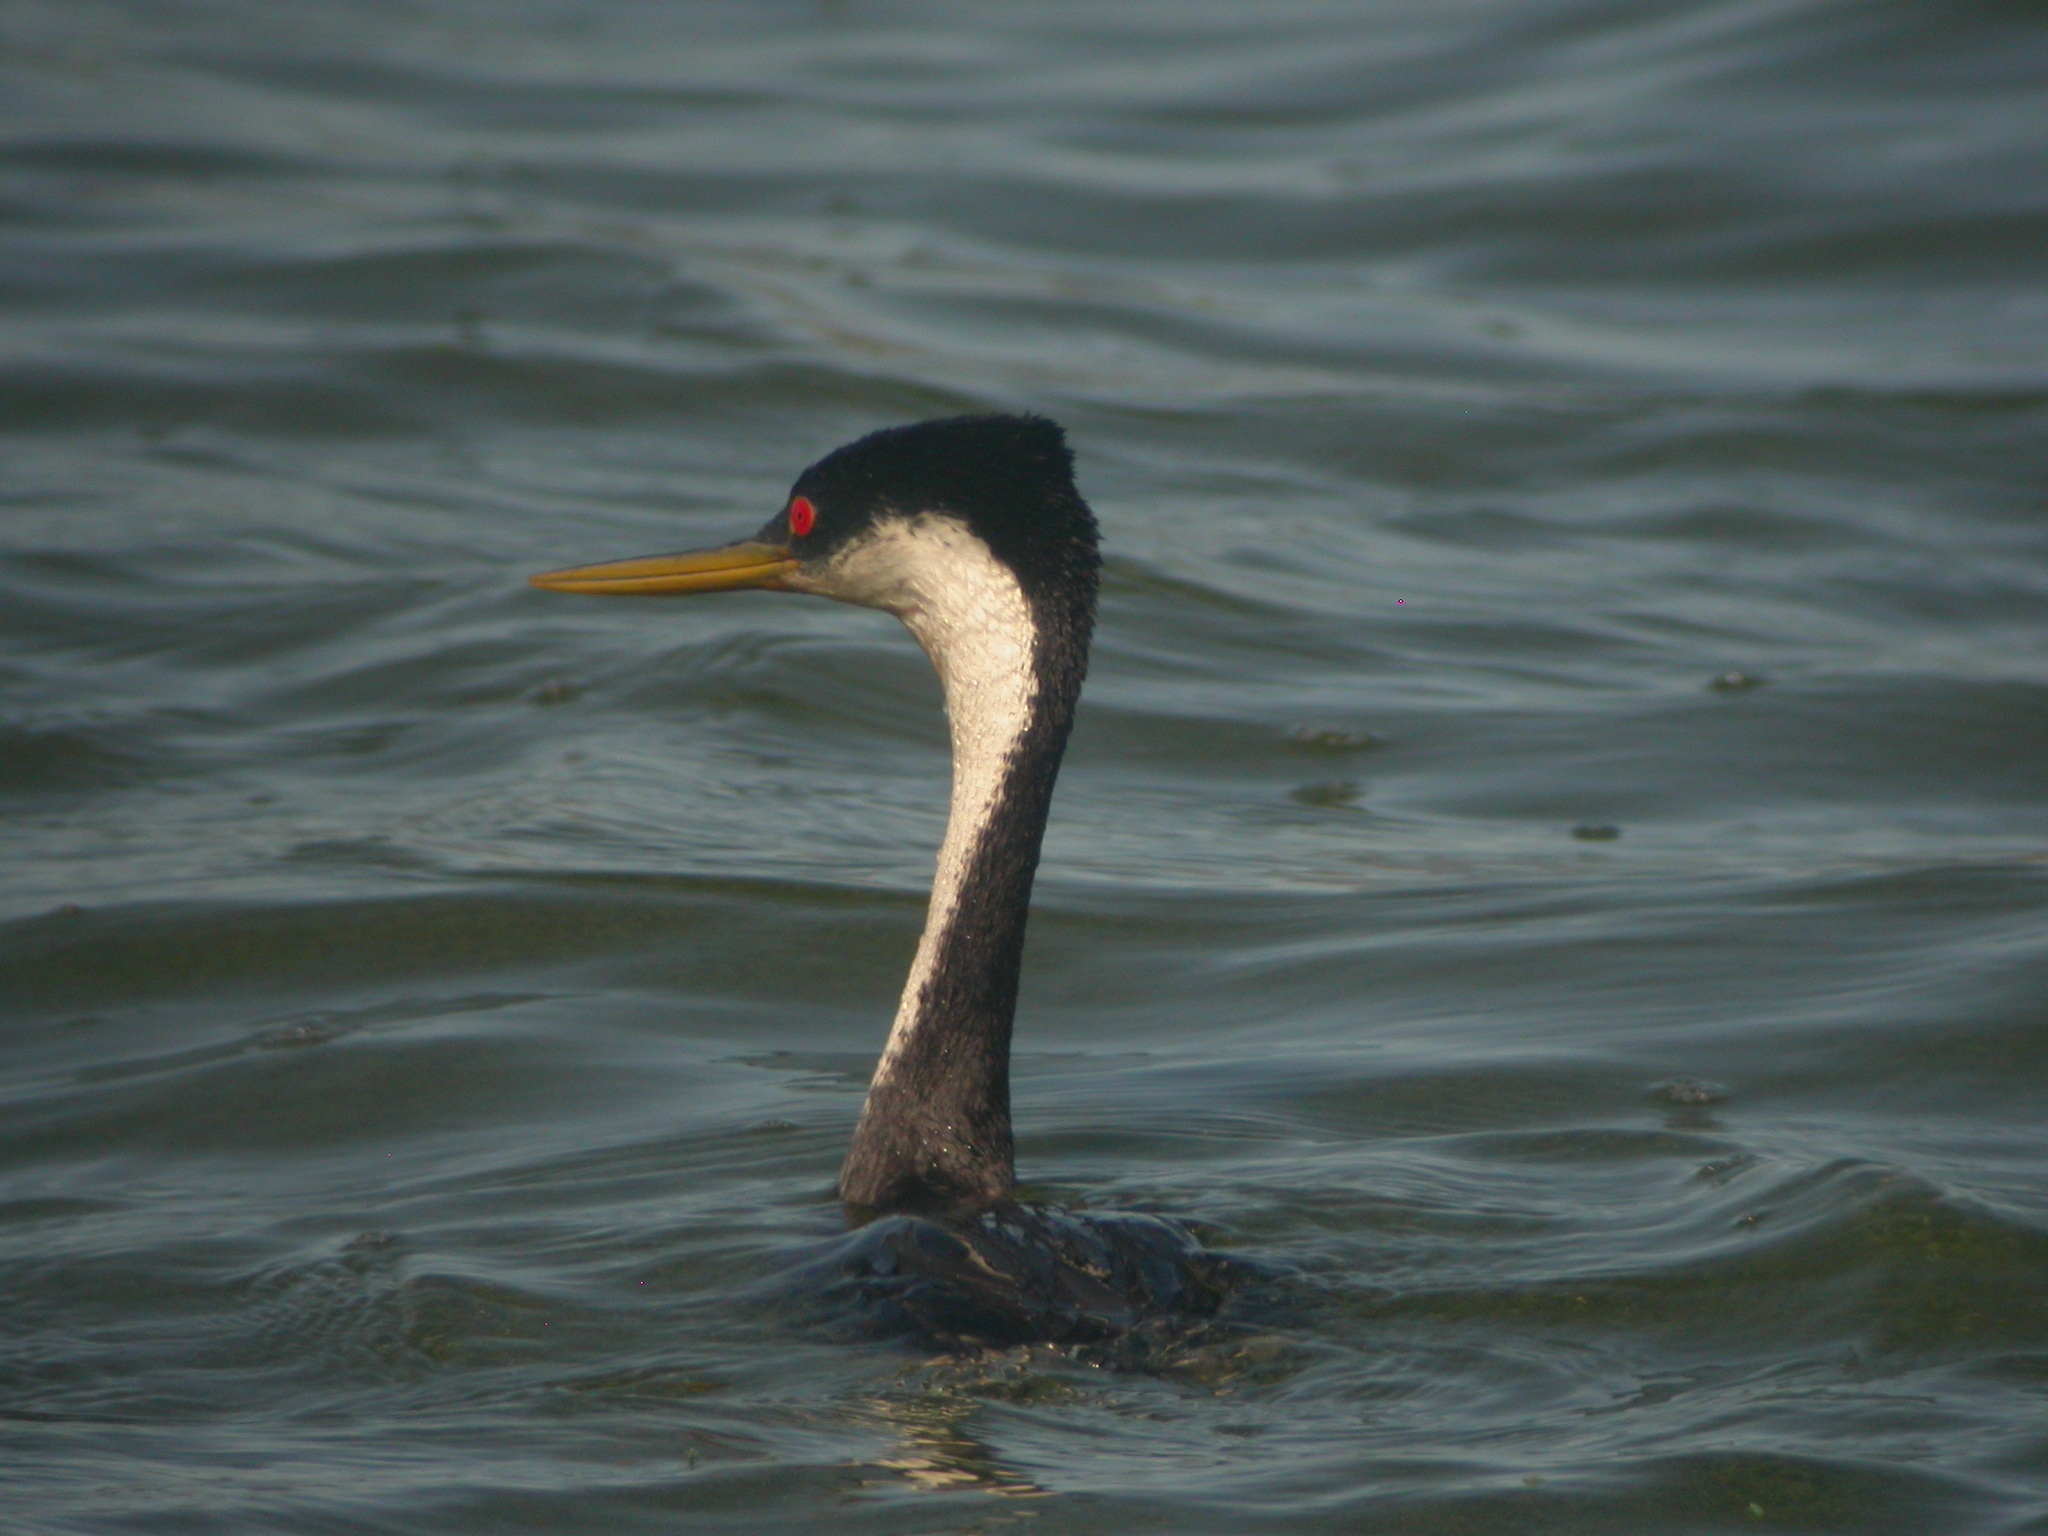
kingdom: Animalia
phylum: Chordata
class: Aves
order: Podicipediformes
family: Podicipedidae
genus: Aechmophorus
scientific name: Aechmophorus occidentalis
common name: Western grebe
